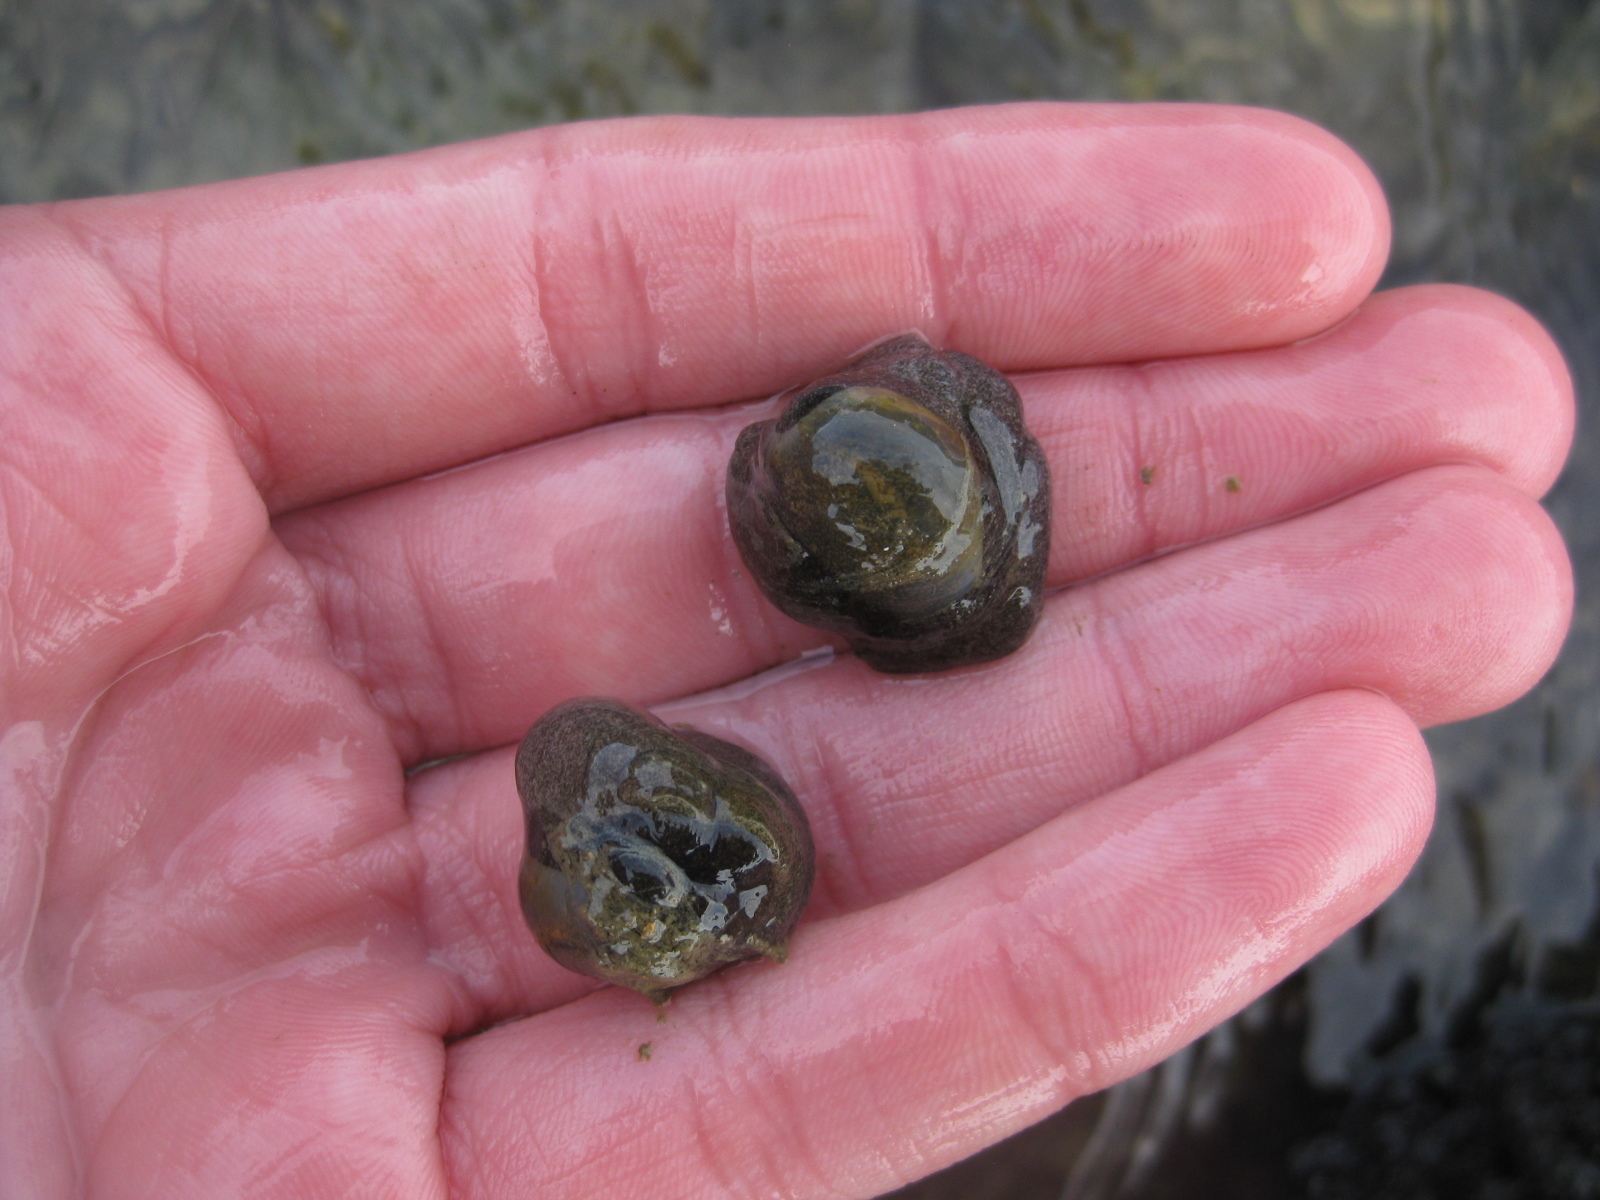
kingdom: Animalia
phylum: Mollusca
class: Gastropoda
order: Cephalaspidea
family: Haminoeidae
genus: Papawera
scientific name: Papawera zelandiae
